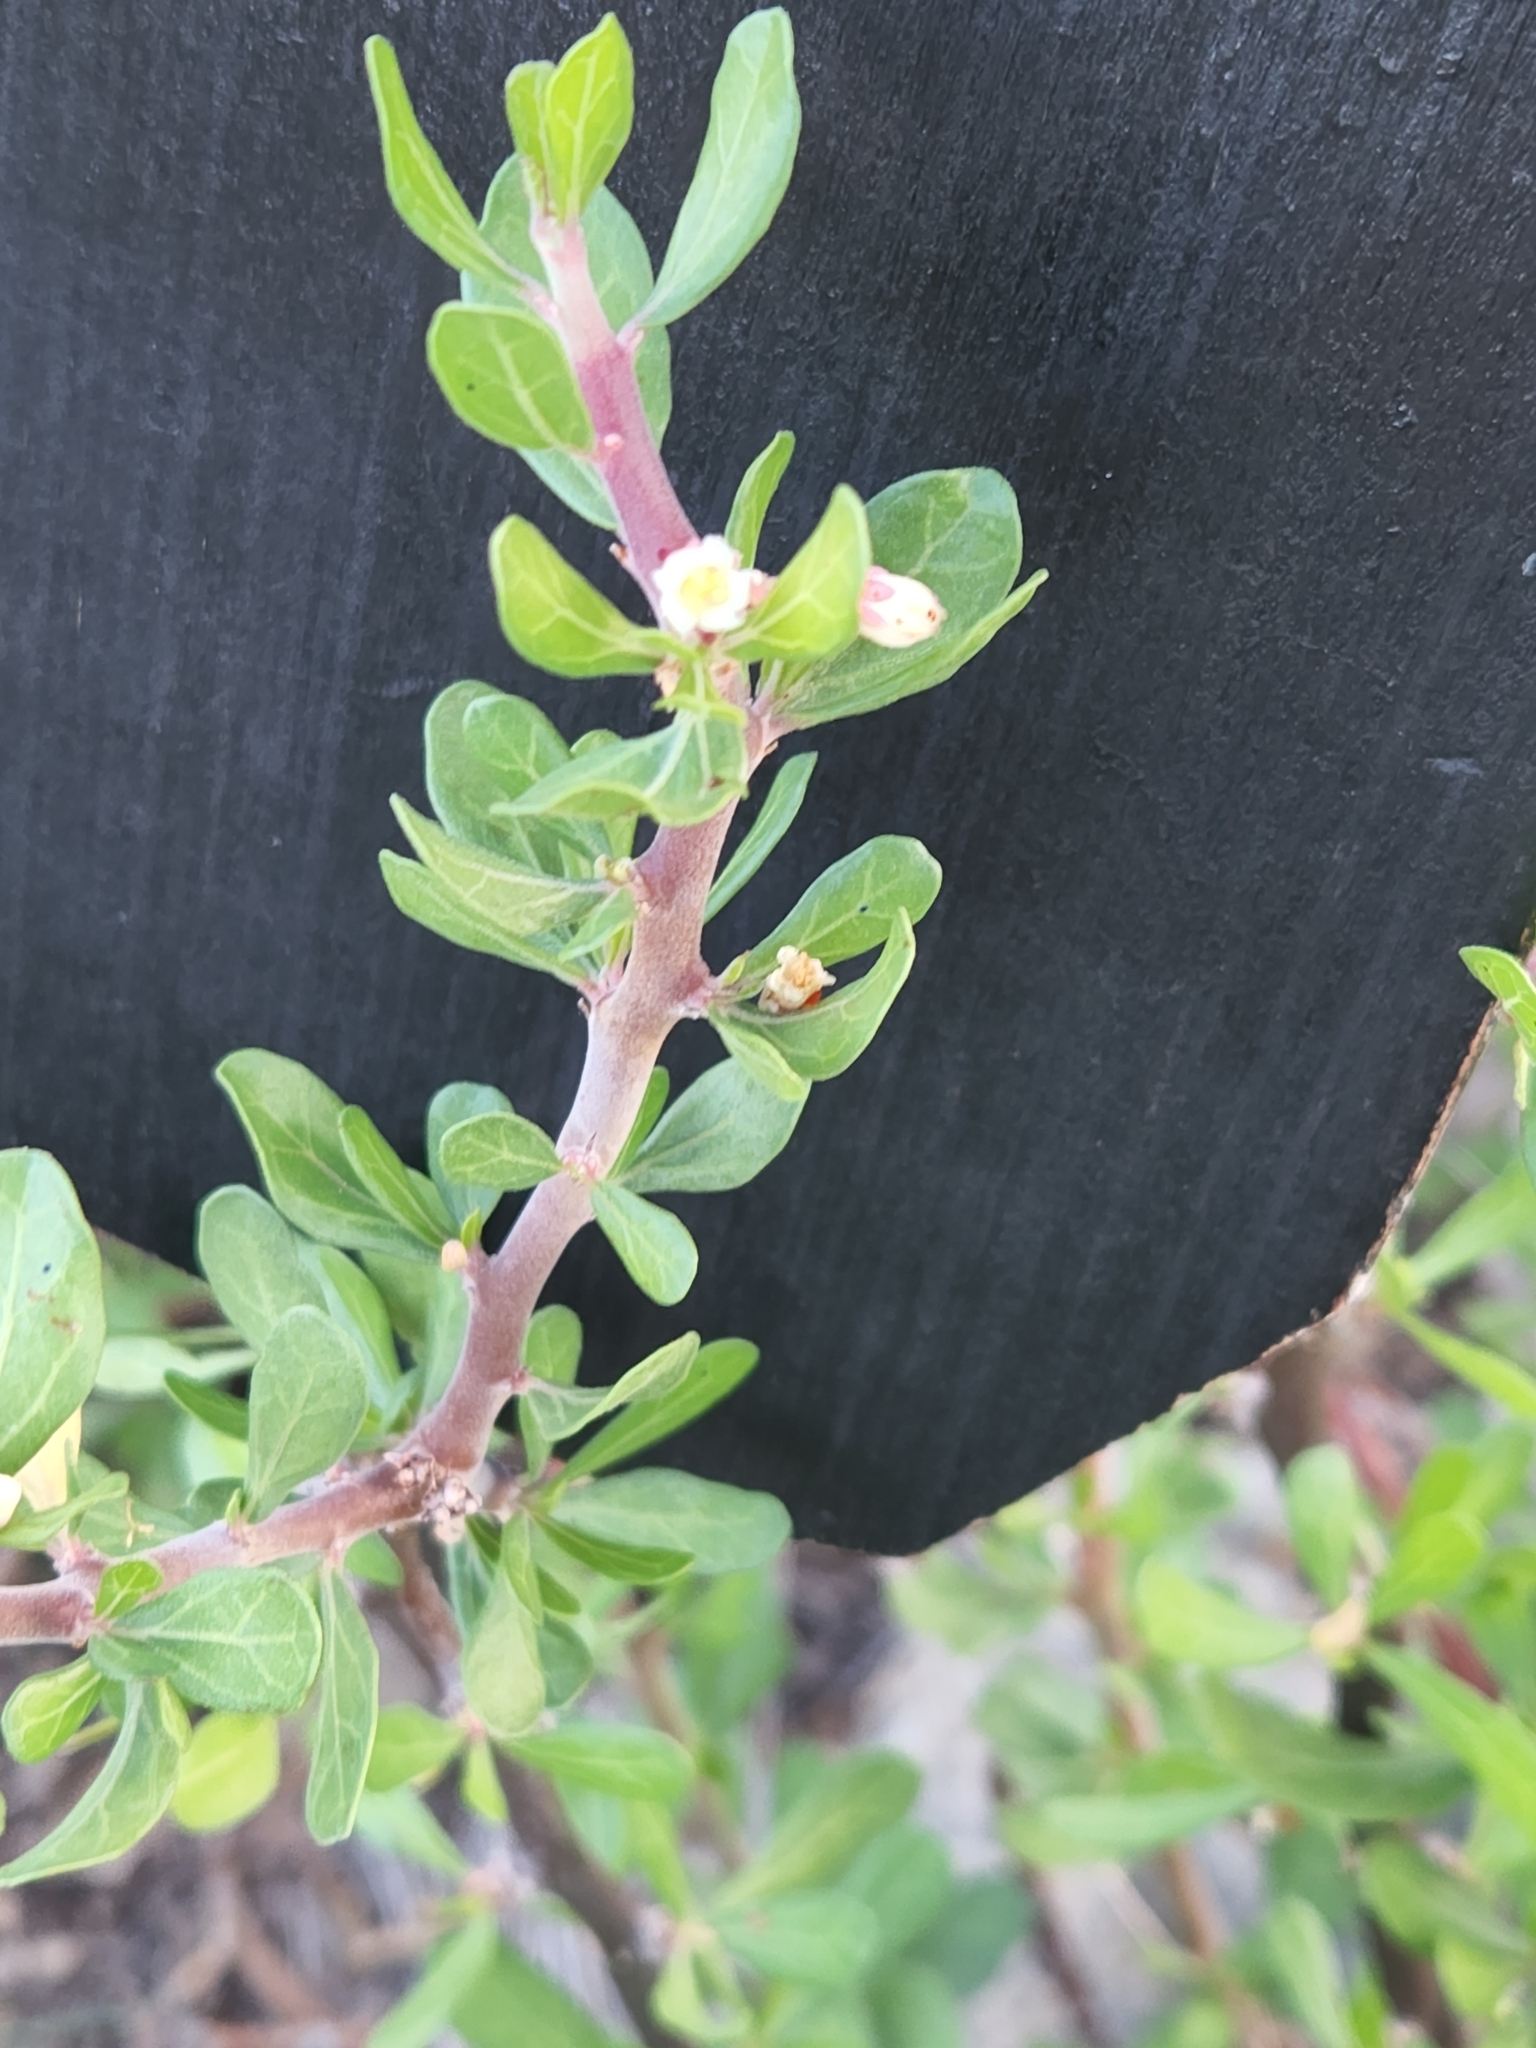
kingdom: Plantae
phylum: Tracheophyta
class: Magnoliopsida
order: Malpighiales
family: Euphorbiaceae
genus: Jatropha
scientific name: Jatropha dioica
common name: Leatherstem
